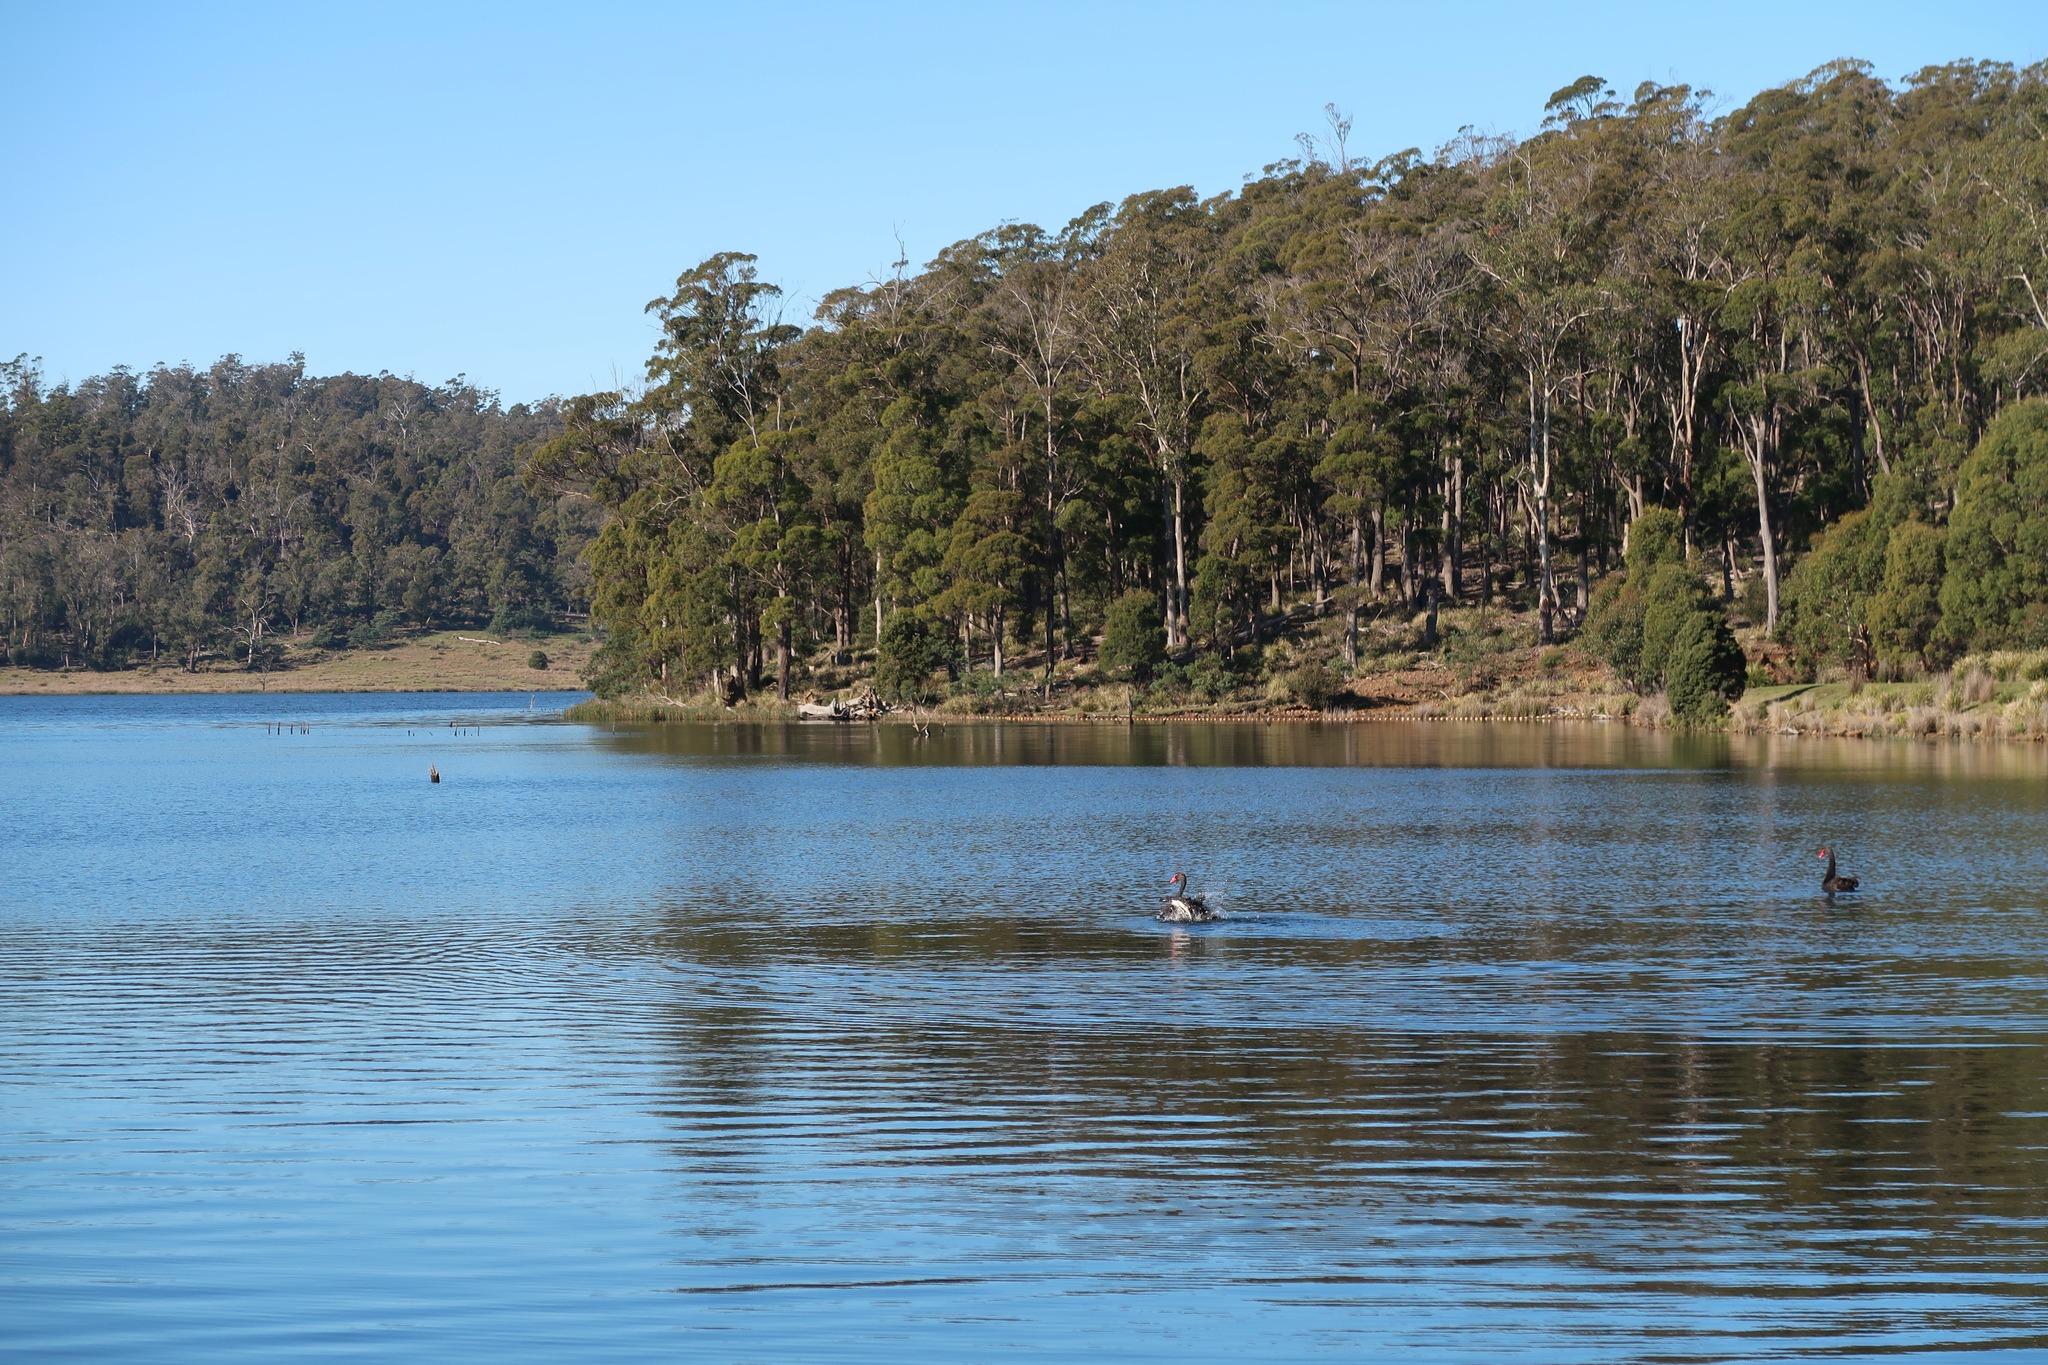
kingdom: Animalia
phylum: Chordata
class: Aves
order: Anseriformes
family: Anatidae
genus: Cygnus
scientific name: Cygnus atratus
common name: Black swan
